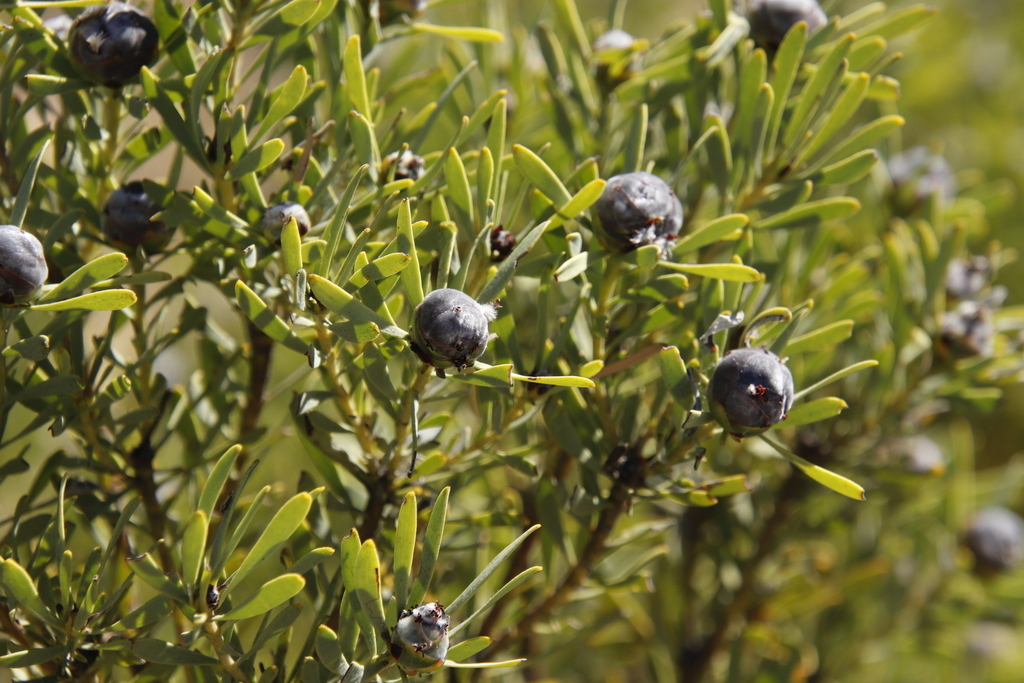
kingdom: Plantae
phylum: Tracheophyta
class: Magnoliopsida
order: Proteales
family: Proteaceae
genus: Leucadendron
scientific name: Leucadendron pubescens
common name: Grey conebush
